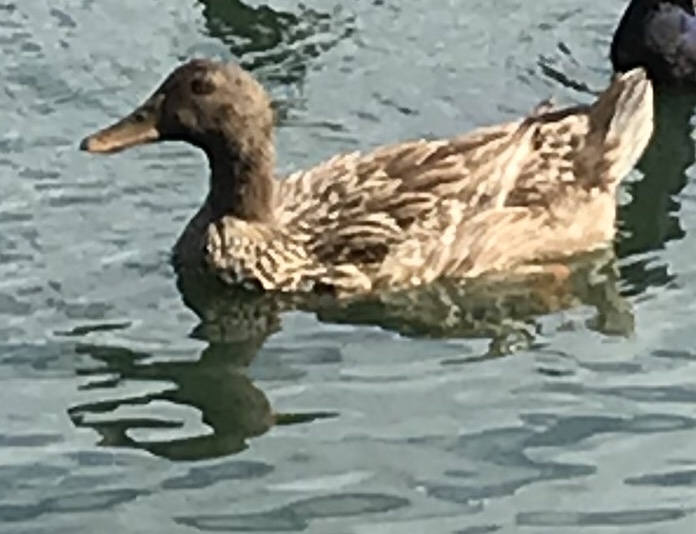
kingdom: Animalia
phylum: Chordata
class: Aves
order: Anseriformes
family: Anatidae
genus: Anas
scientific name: Anas platyrhynchos
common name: Mallard
